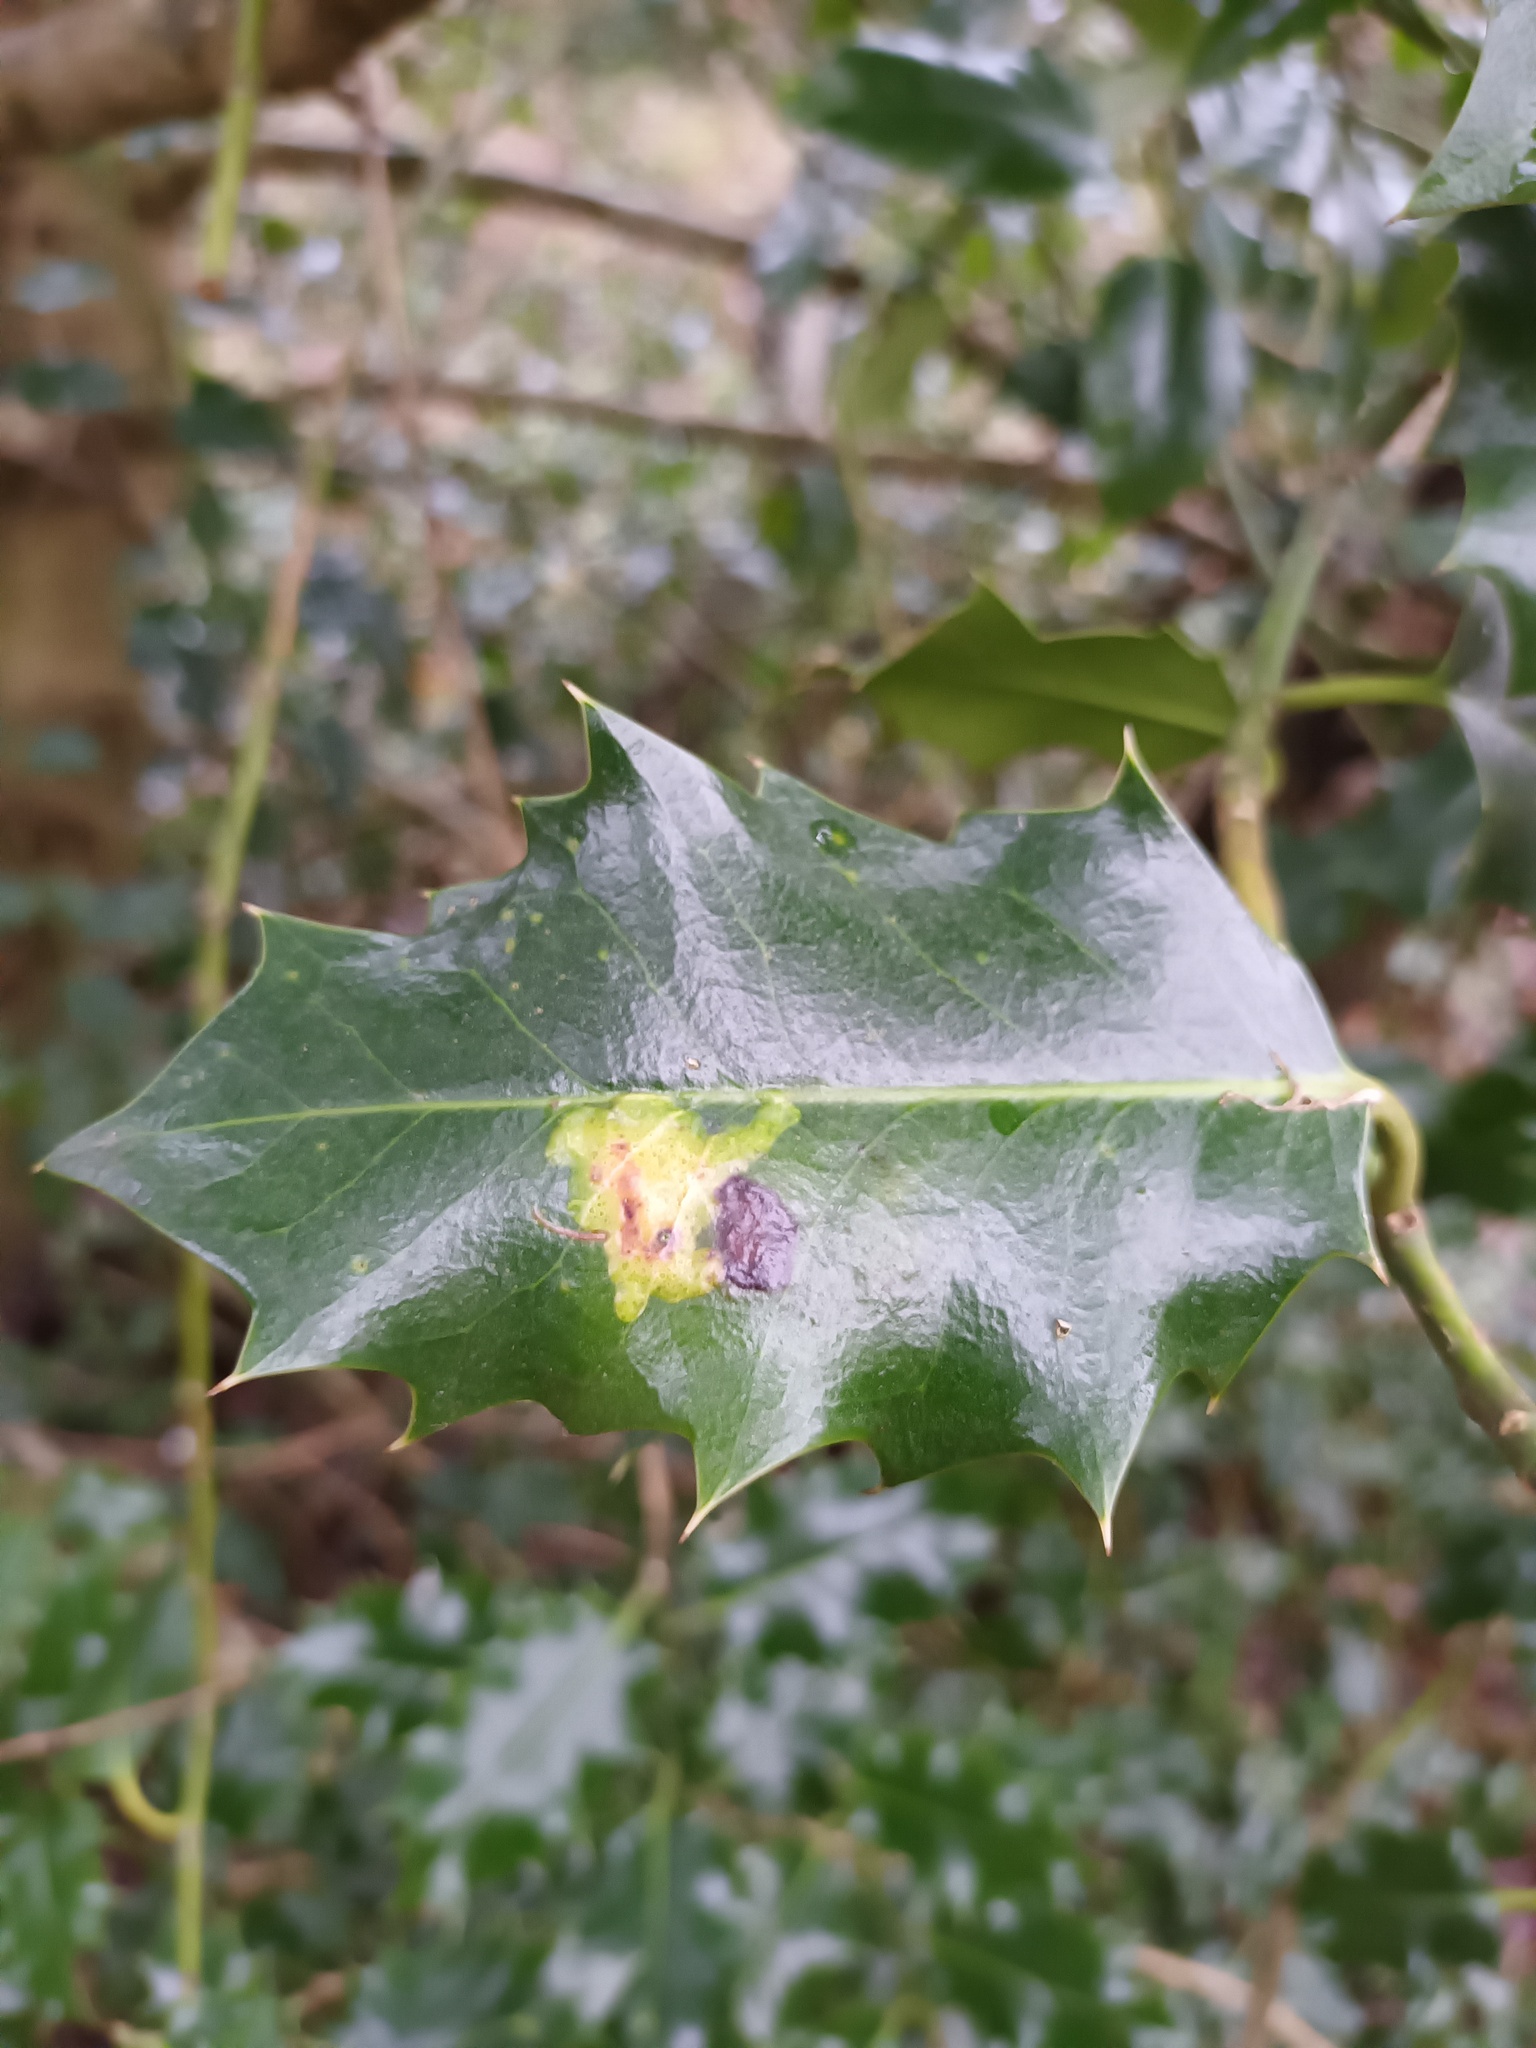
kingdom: Animalia
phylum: Arthropoda
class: Insecta
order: Diptera
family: Agromyzidae
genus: Phytomyza
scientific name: Phytomyza ilicis
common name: Holly leafminer
